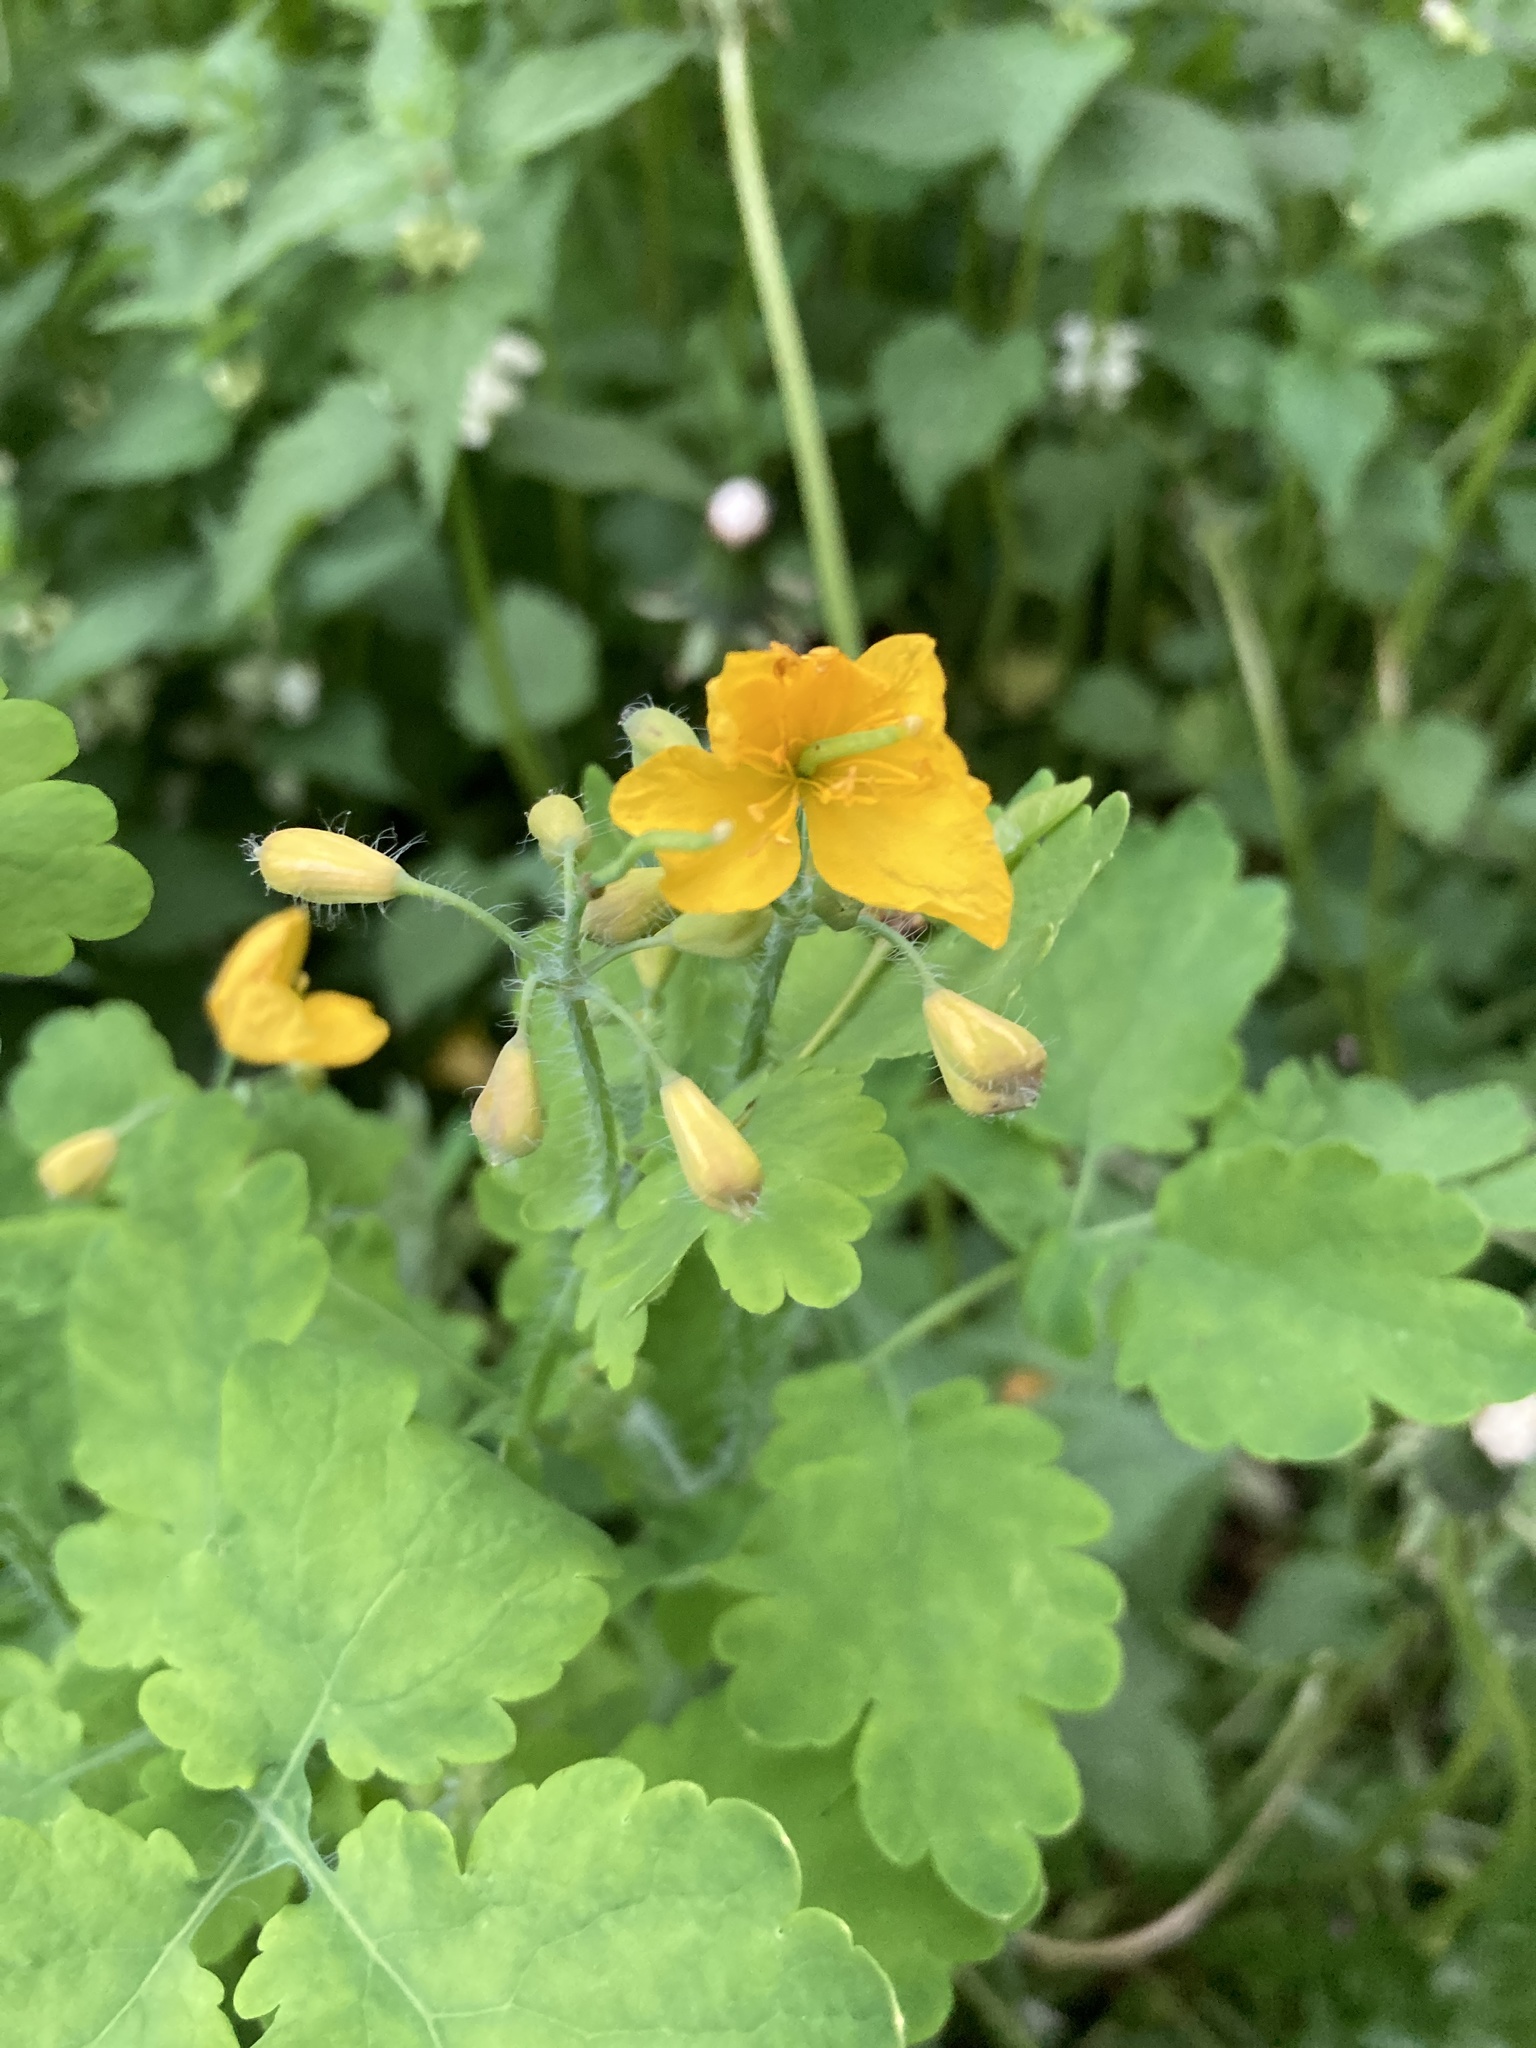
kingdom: Plantae
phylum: Tracheophyta
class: Magnoliopsida
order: Ranunculales
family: Papaveraceae
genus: Chelidonium
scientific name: Chelidonium majus
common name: Greater celandine
